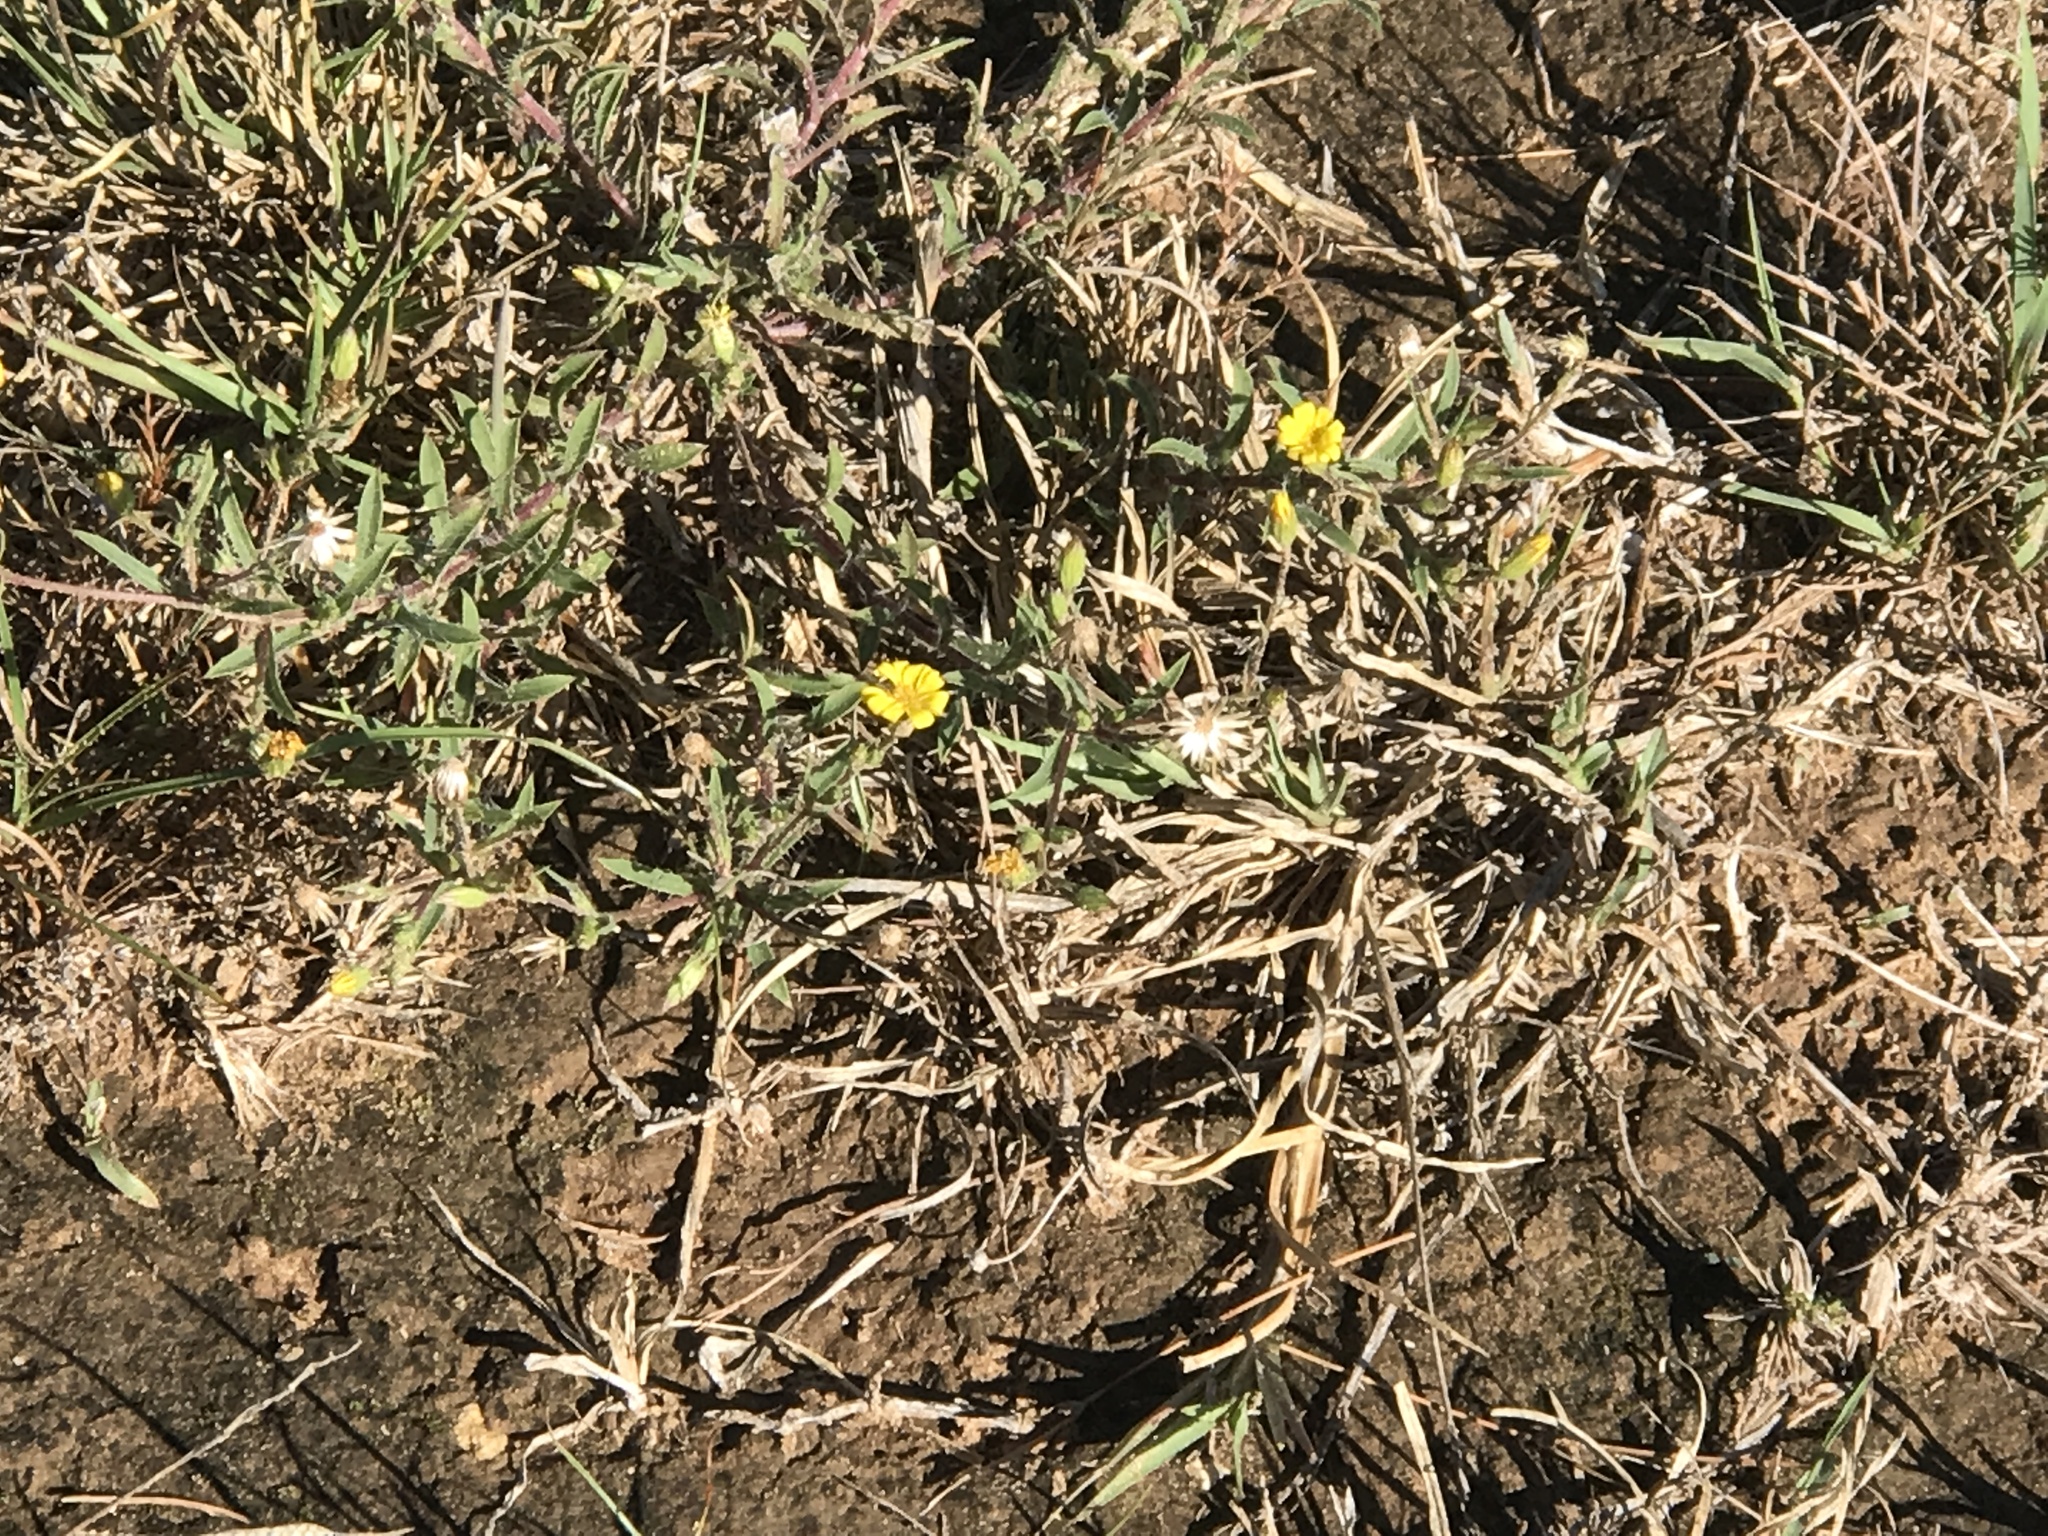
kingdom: Plantae
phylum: Tracheophyta
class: Magnoliopsida
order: Asterales
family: Asteraceae
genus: Hedypnois
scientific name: Hedypnois rhagadioloides
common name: Cretan weed
